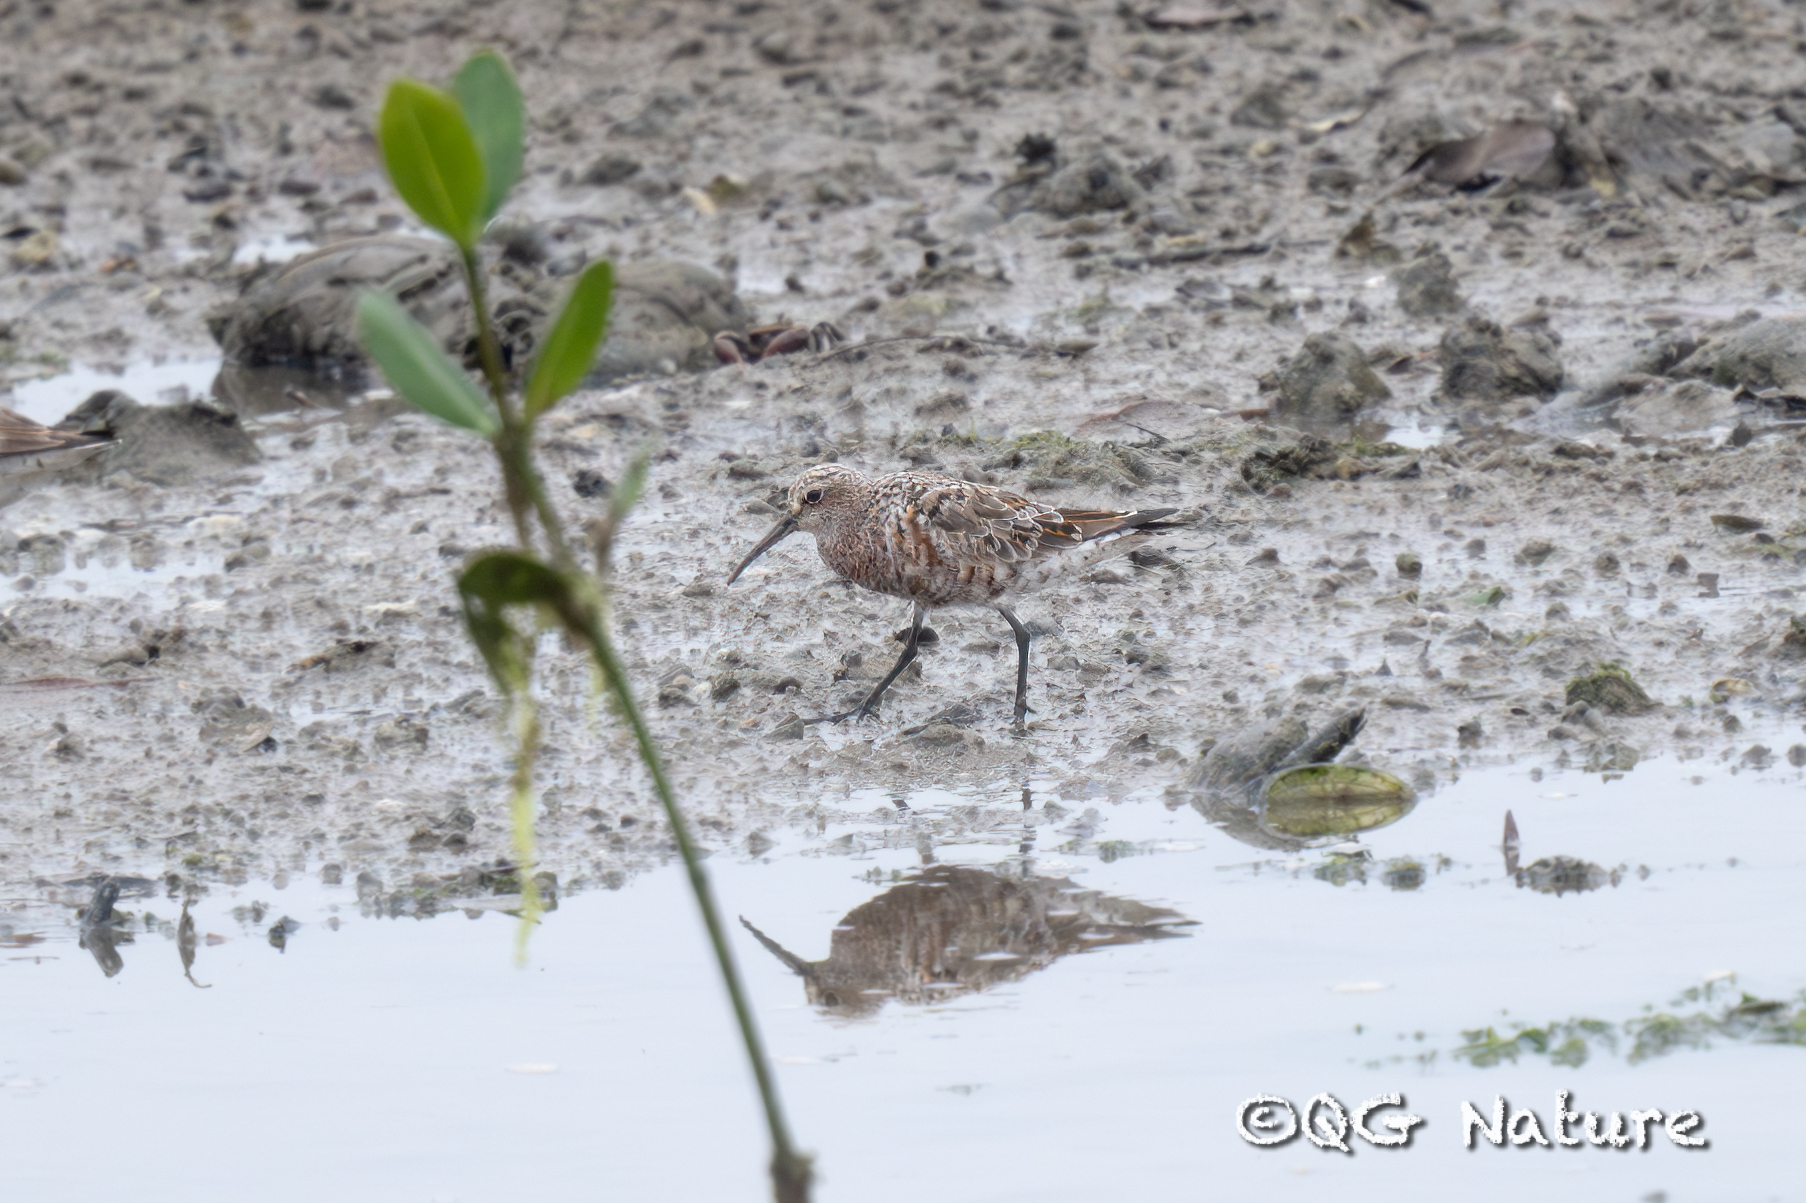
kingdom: Animalia
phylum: Chordata
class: Aves
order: Charadriiformes
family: Scolopacidae
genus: Calidris
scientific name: Calidris ferruginea
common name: Curlew sandpiper
